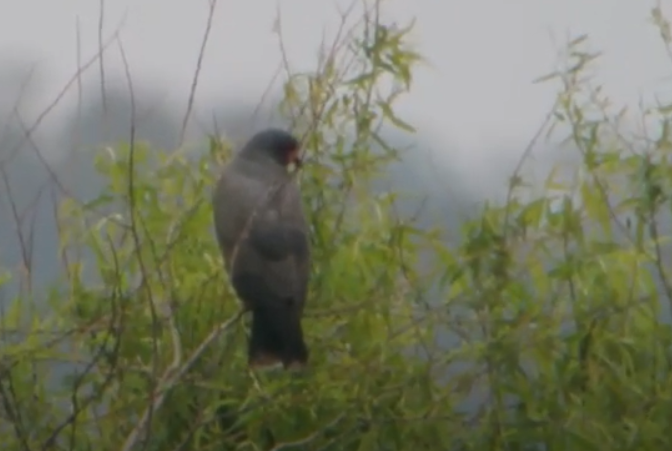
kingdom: Animalia
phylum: Chordata
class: Aves
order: Accipitriformes
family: Accipitridae
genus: Rostrhamus
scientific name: Rostrhamus sociabilis
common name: Snail kite
